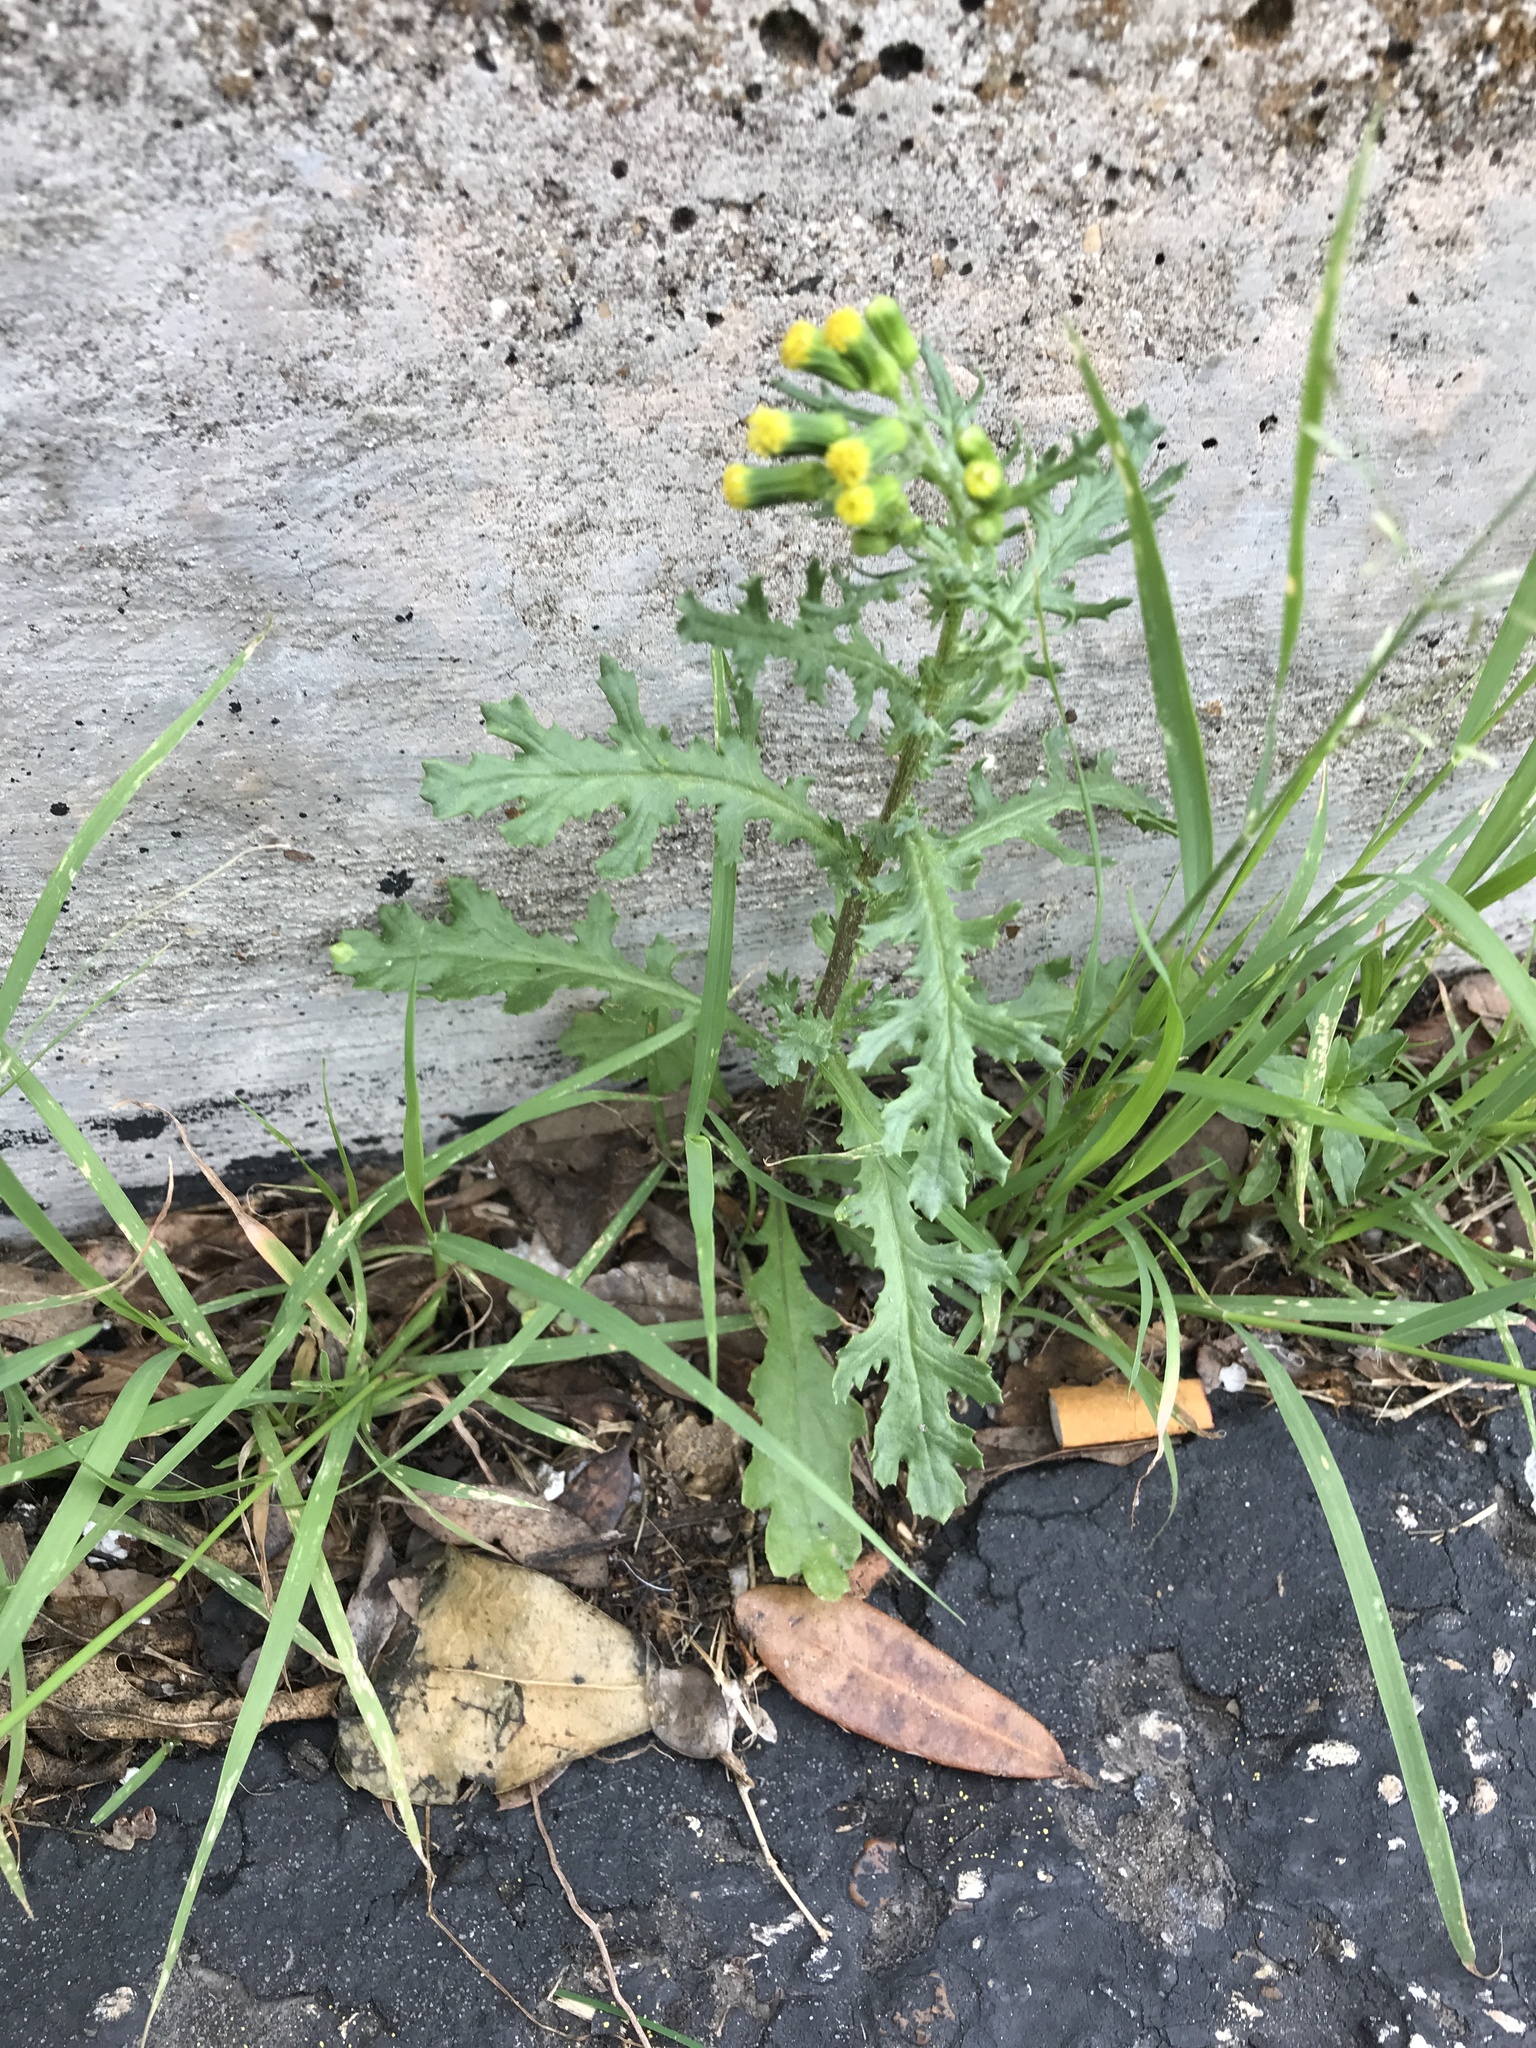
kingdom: Plantae
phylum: Tracheophyta
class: Magnoliopsida
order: Asterales
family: Asteraceae
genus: Senecio
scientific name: Senecio vulgaris
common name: Old-man-in-the-spring
